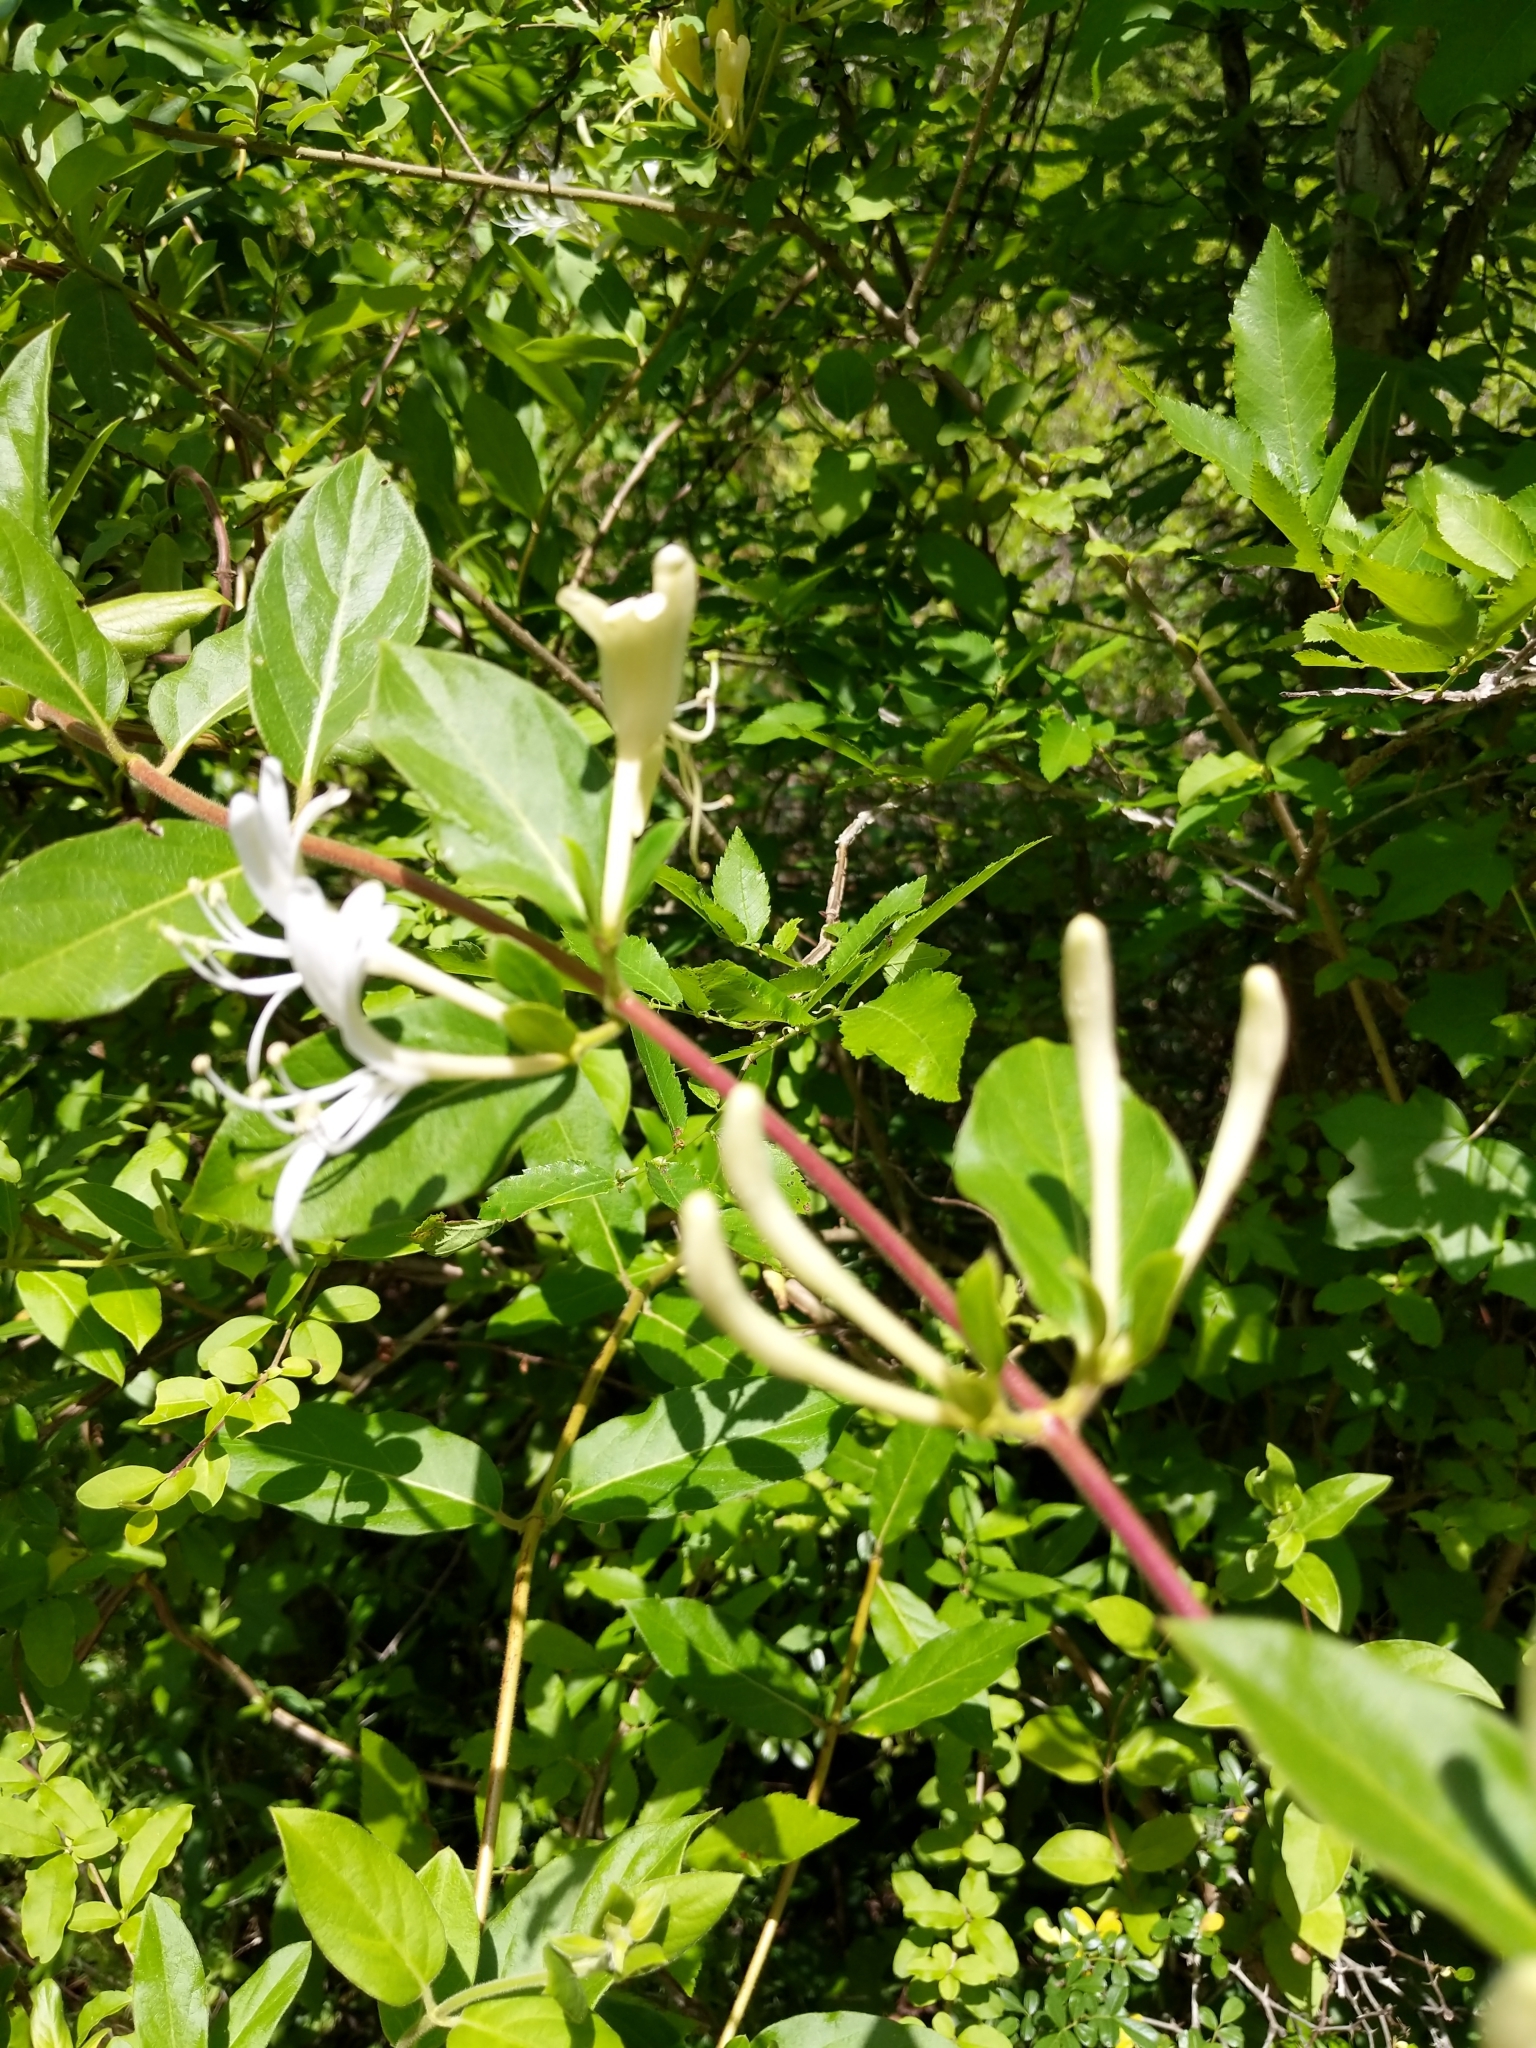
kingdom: Plantae
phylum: Tracheophyta
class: Magnoliopsida
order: Dipsacales
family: Caprifoliaceae
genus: Lonicera
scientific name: Lonicera japonica
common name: Japanese honeysuckle
